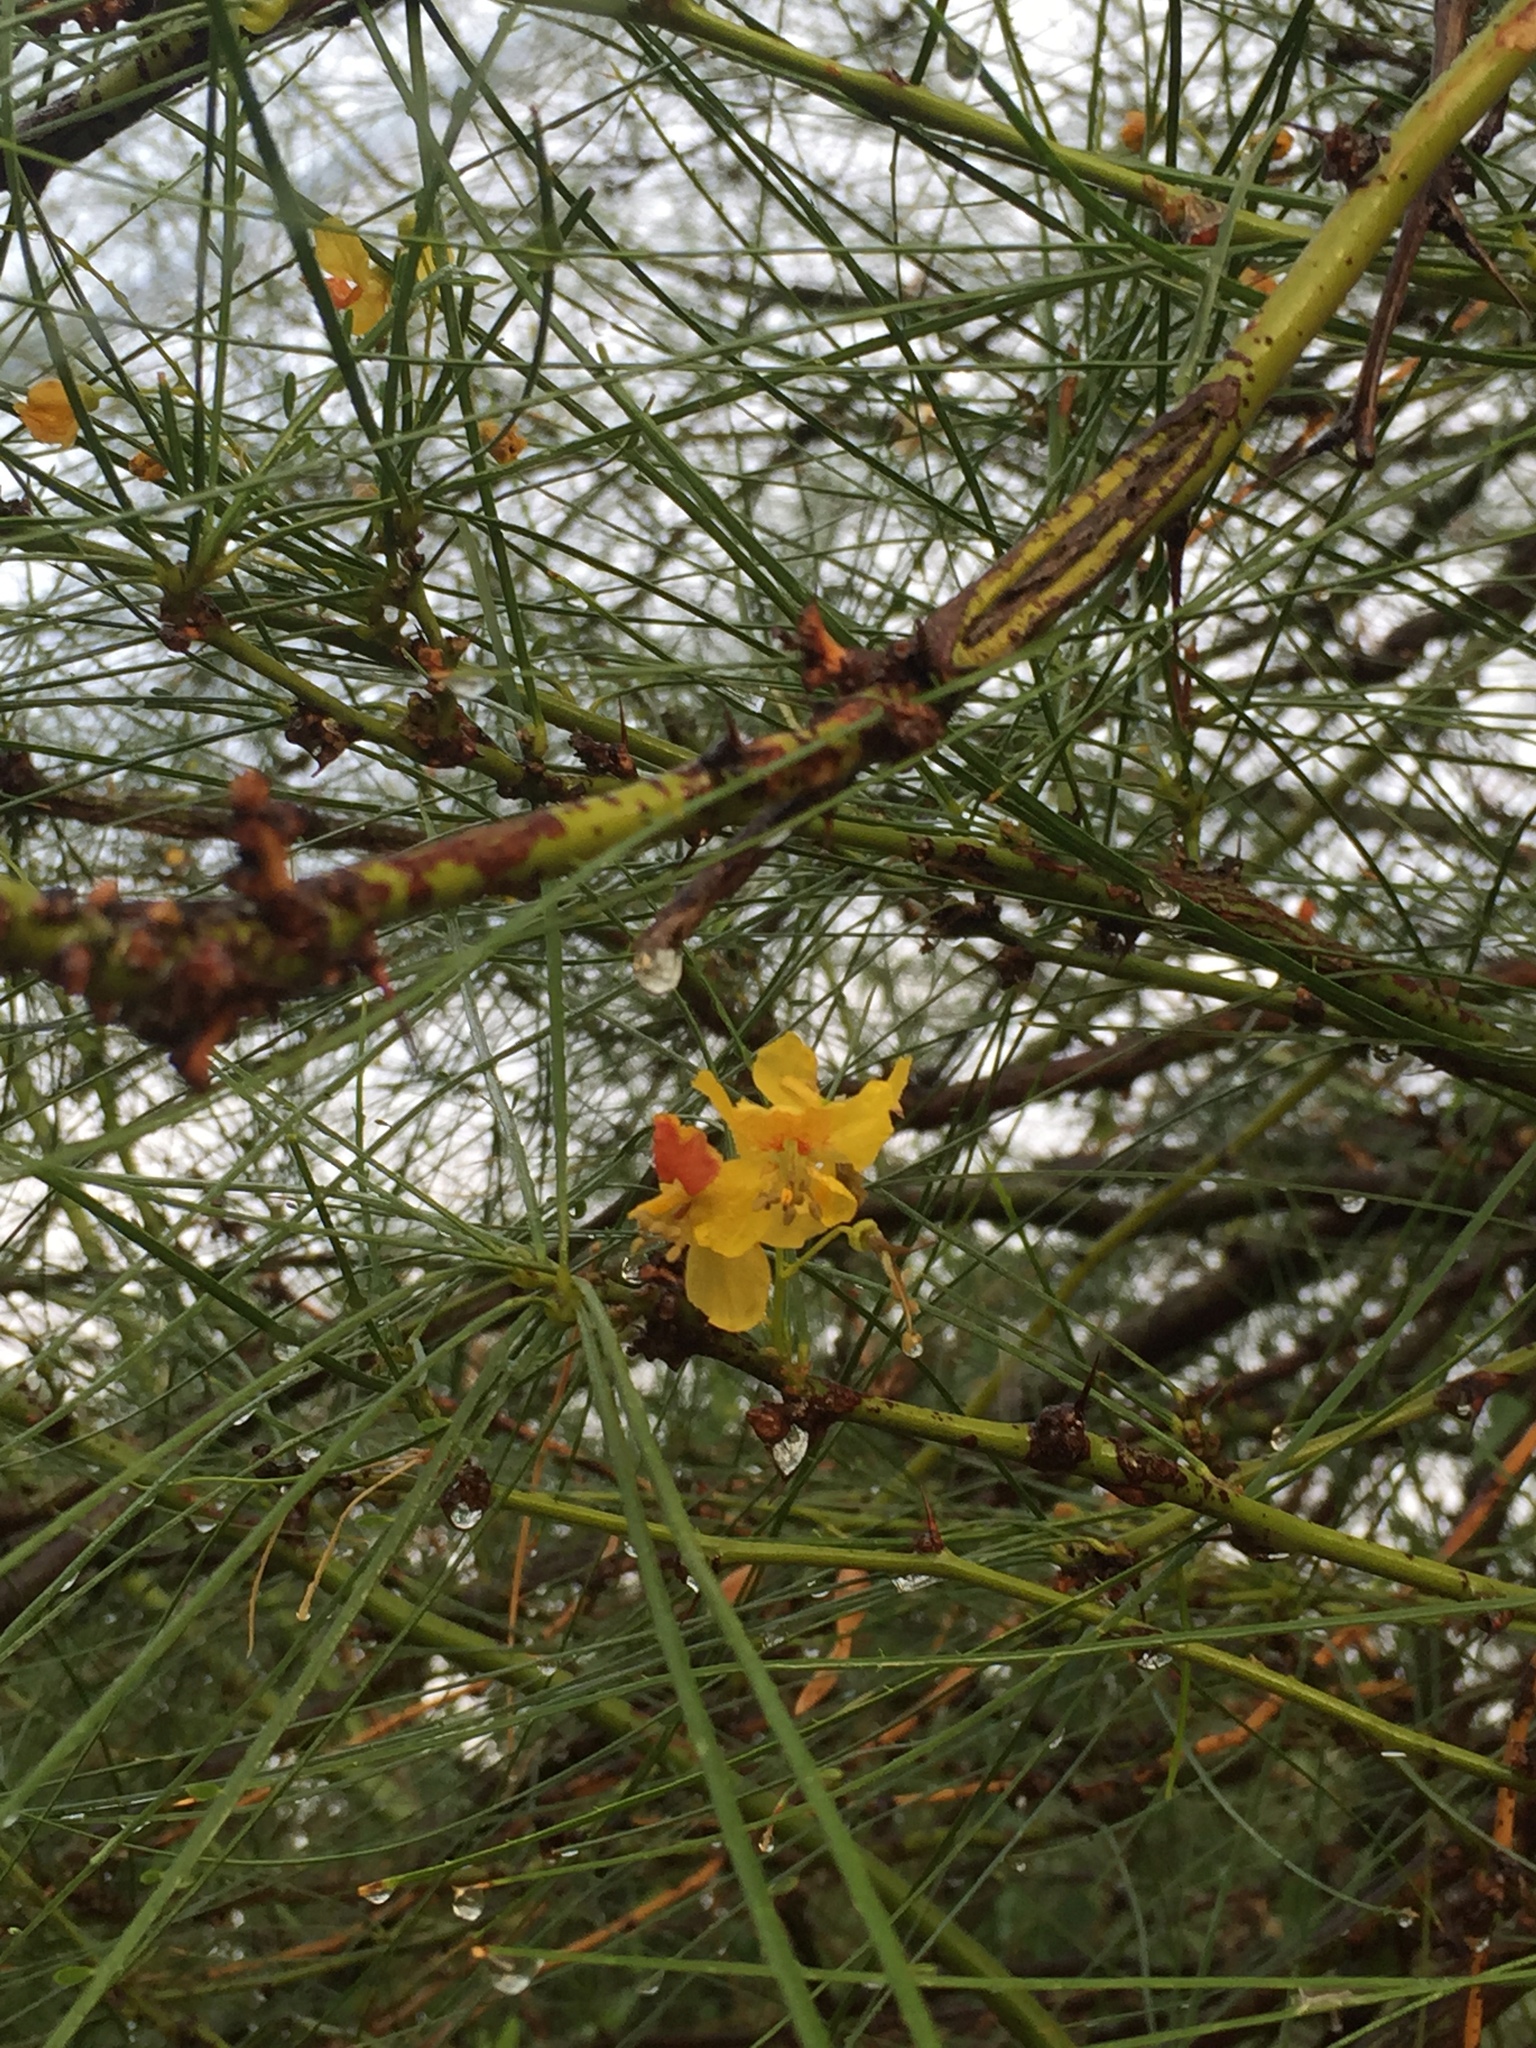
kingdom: Plantae
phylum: Tracheophyta
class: Magnoliopsida
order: Fabales
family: Fabaceae
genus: Parkinsonia
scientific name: Parkinsonia aculeata
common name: Jerusalem thorn
